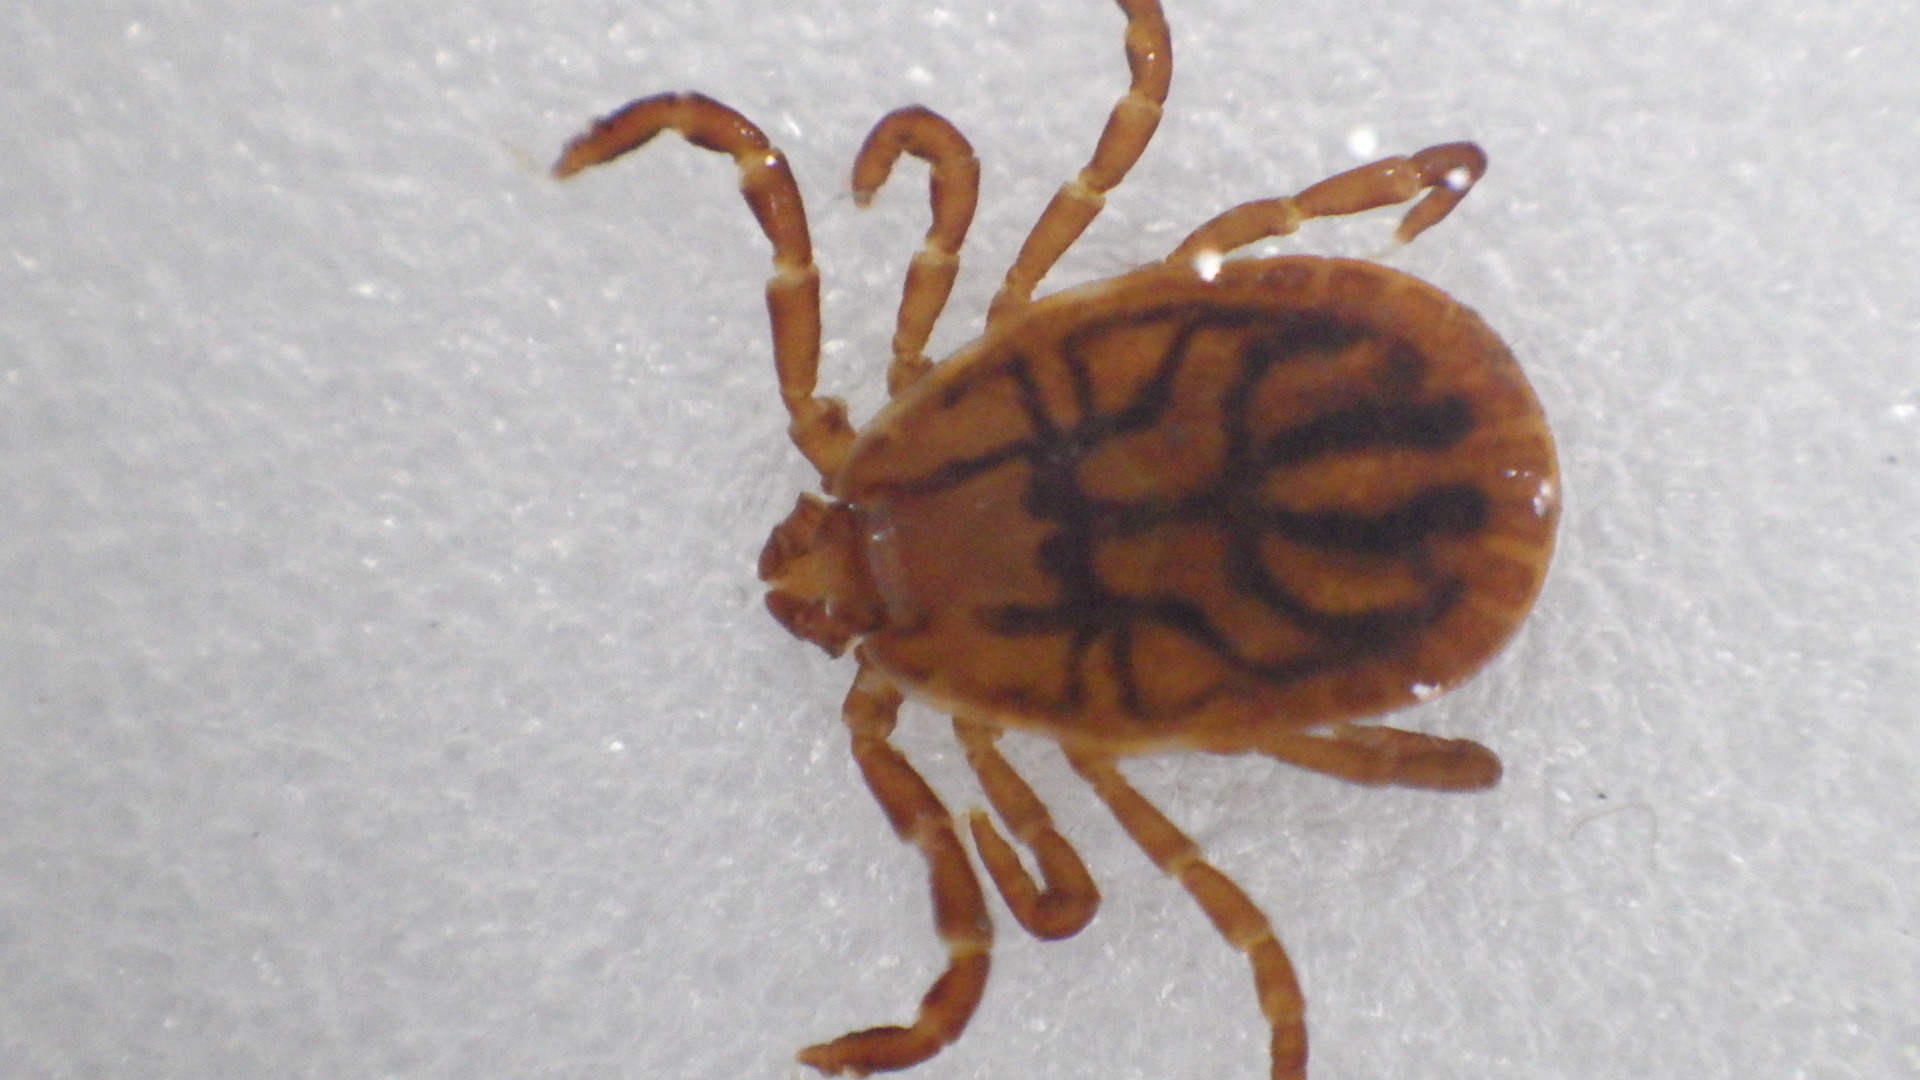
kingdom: Animalia
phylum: Arthropoda
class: Arachnida
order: Ixodida
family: Ixodidae
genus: Haemaphysalis
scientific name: Haemaphysalis longicornis
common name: Bush tick
